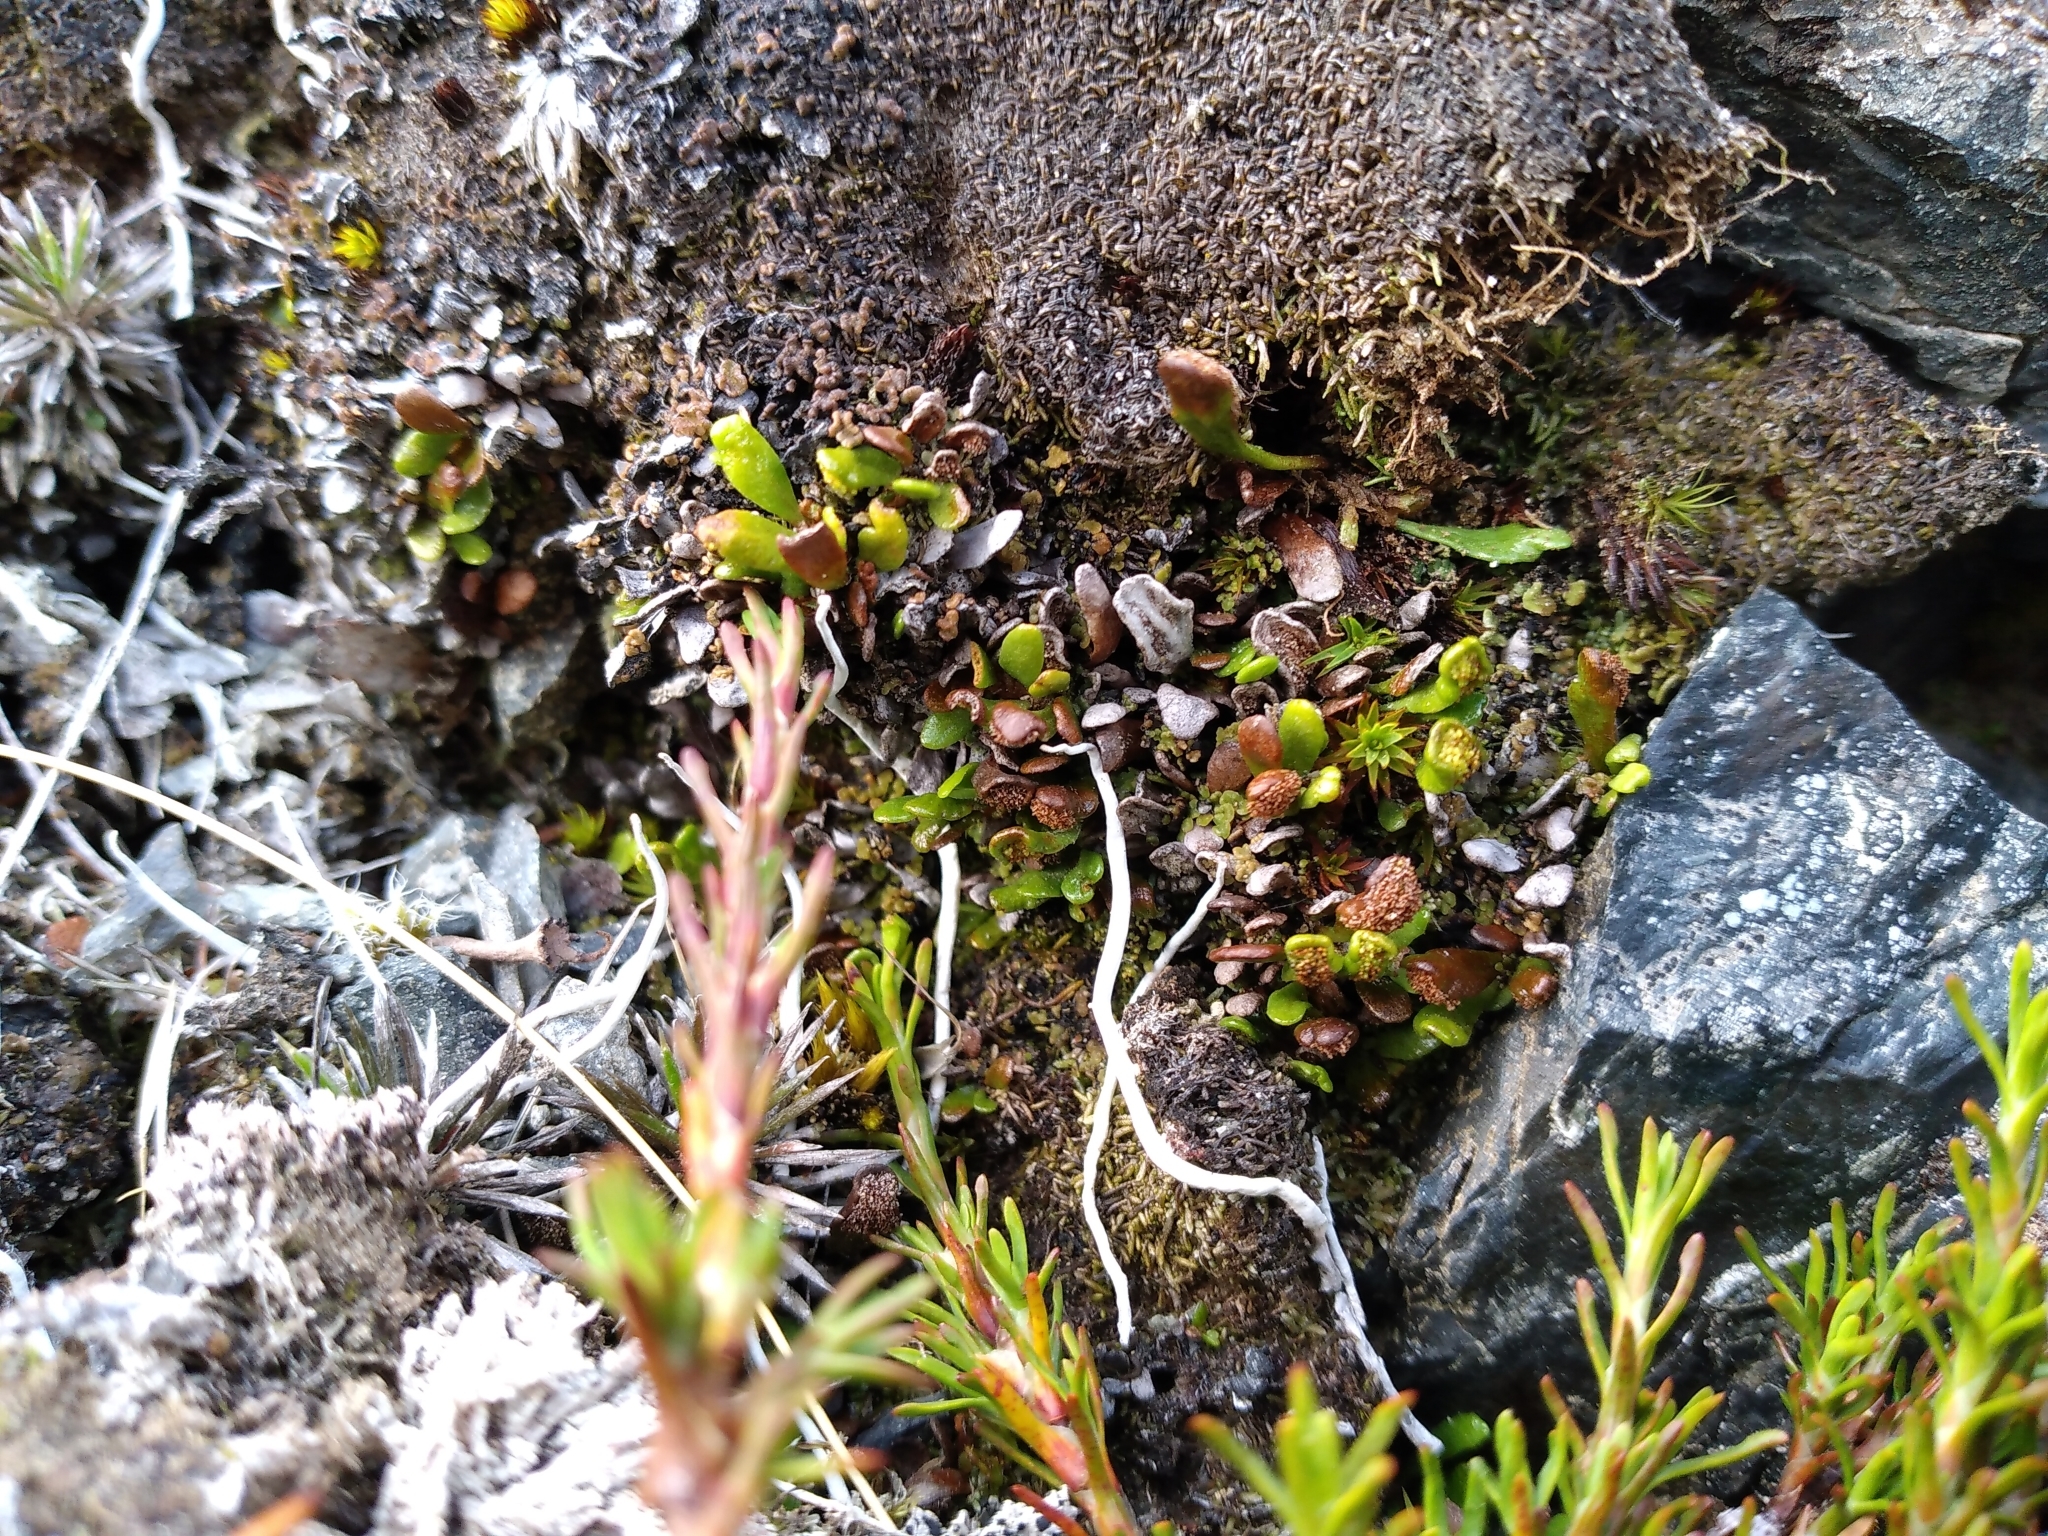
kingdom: Plantae
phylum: Tracheophyta
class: Polypodiopsida
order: Polypodiales
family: Polypodiaceae
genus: Notogrammitis
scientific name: Notogrammitis crassior
